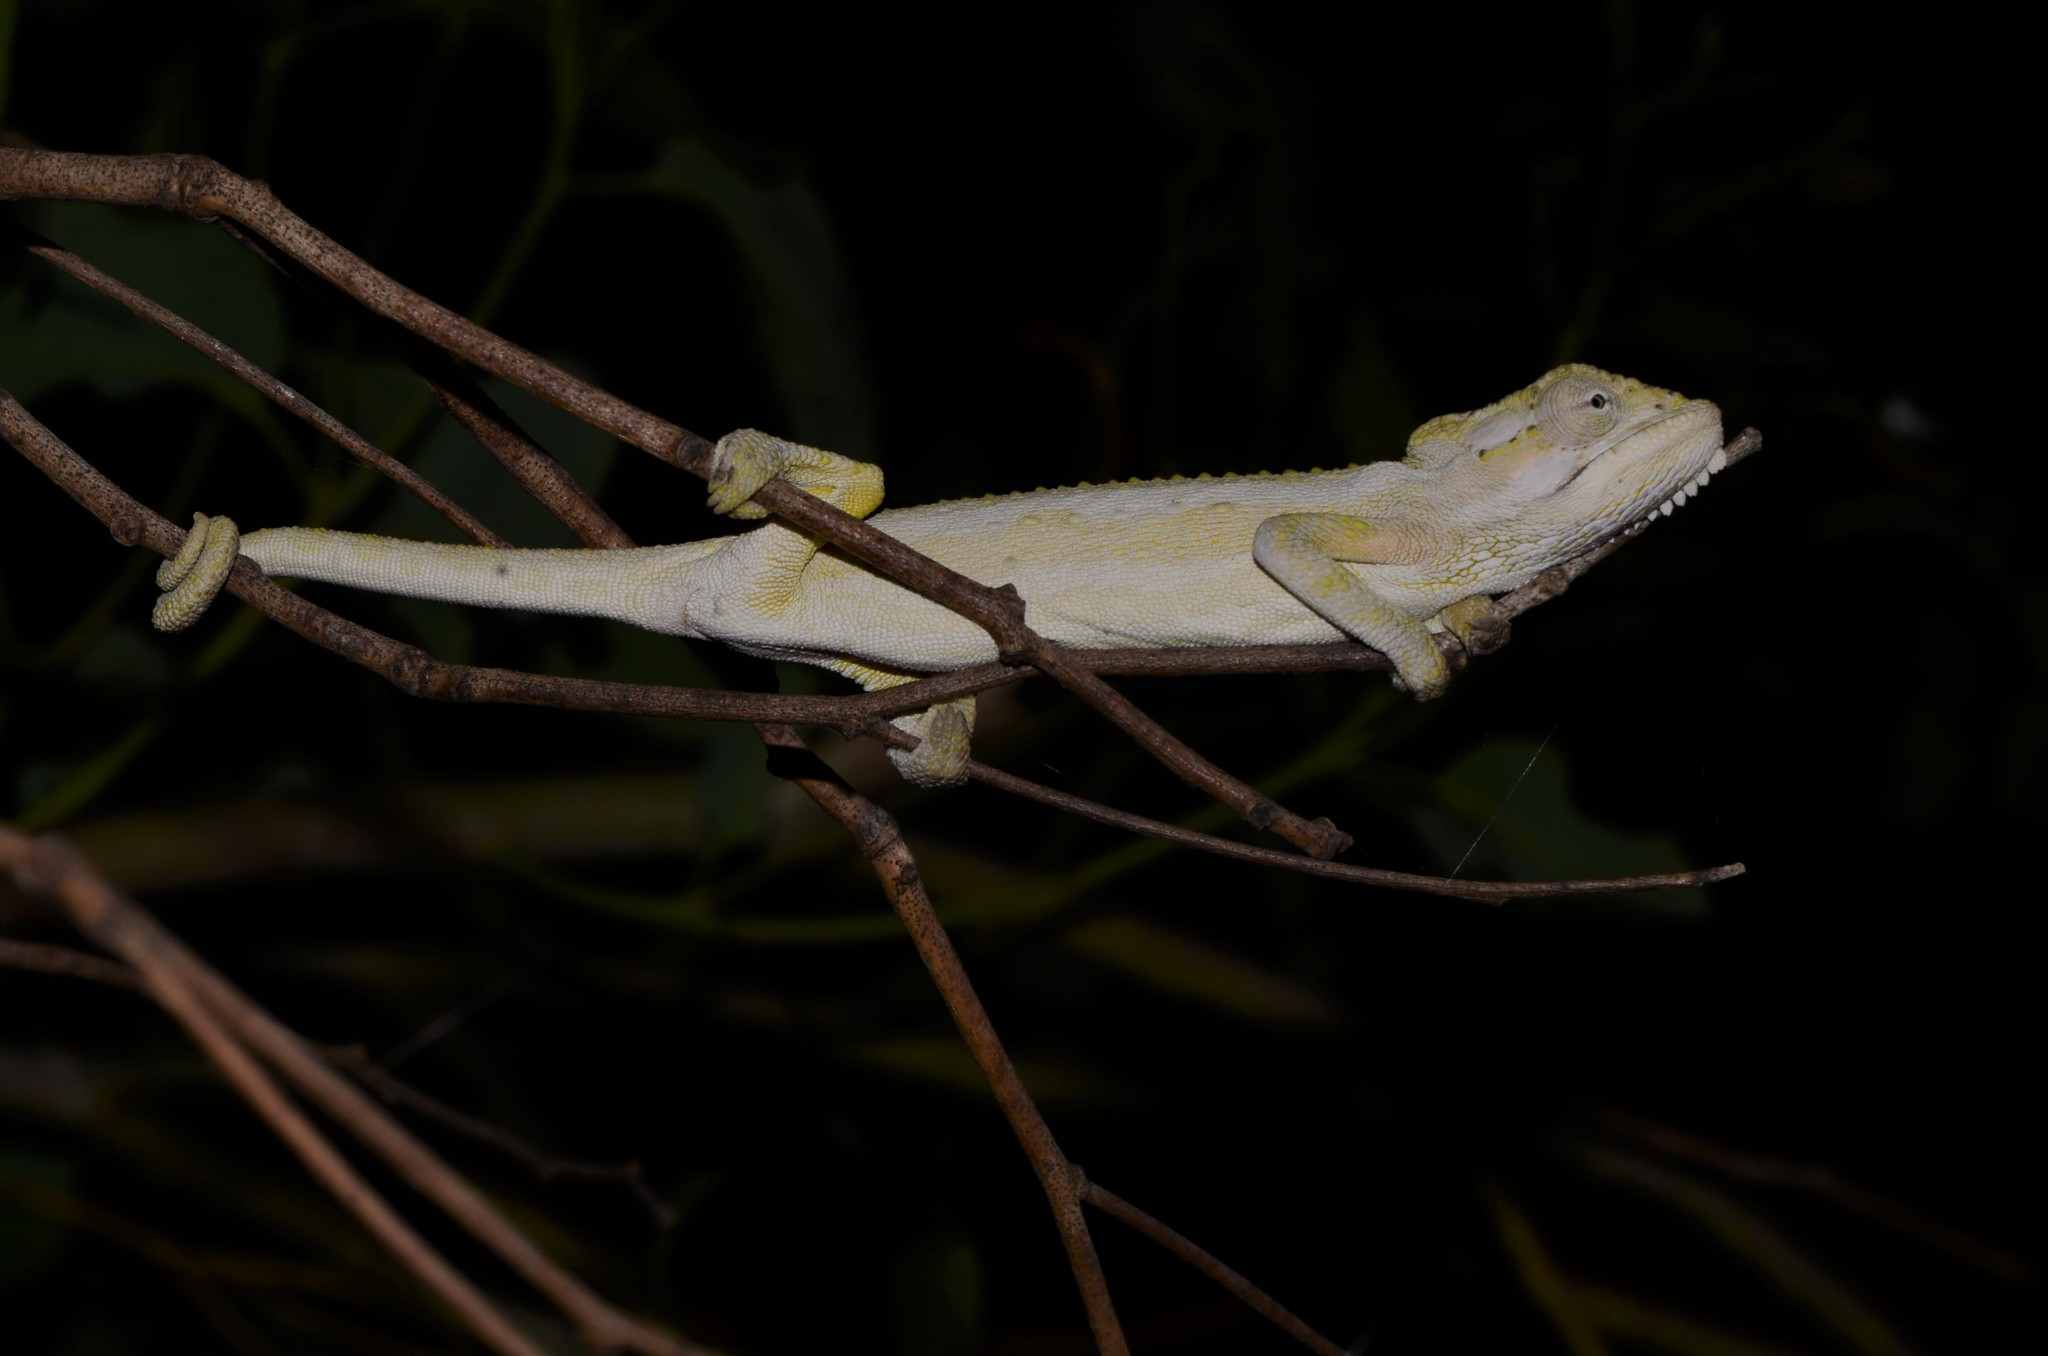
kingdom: Animalia
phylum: Chordata
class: Squamata
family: Chamaeleonidae
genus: Bradypodion
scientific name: Bradypodion pumilum
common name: Cape dwarf chameleon
